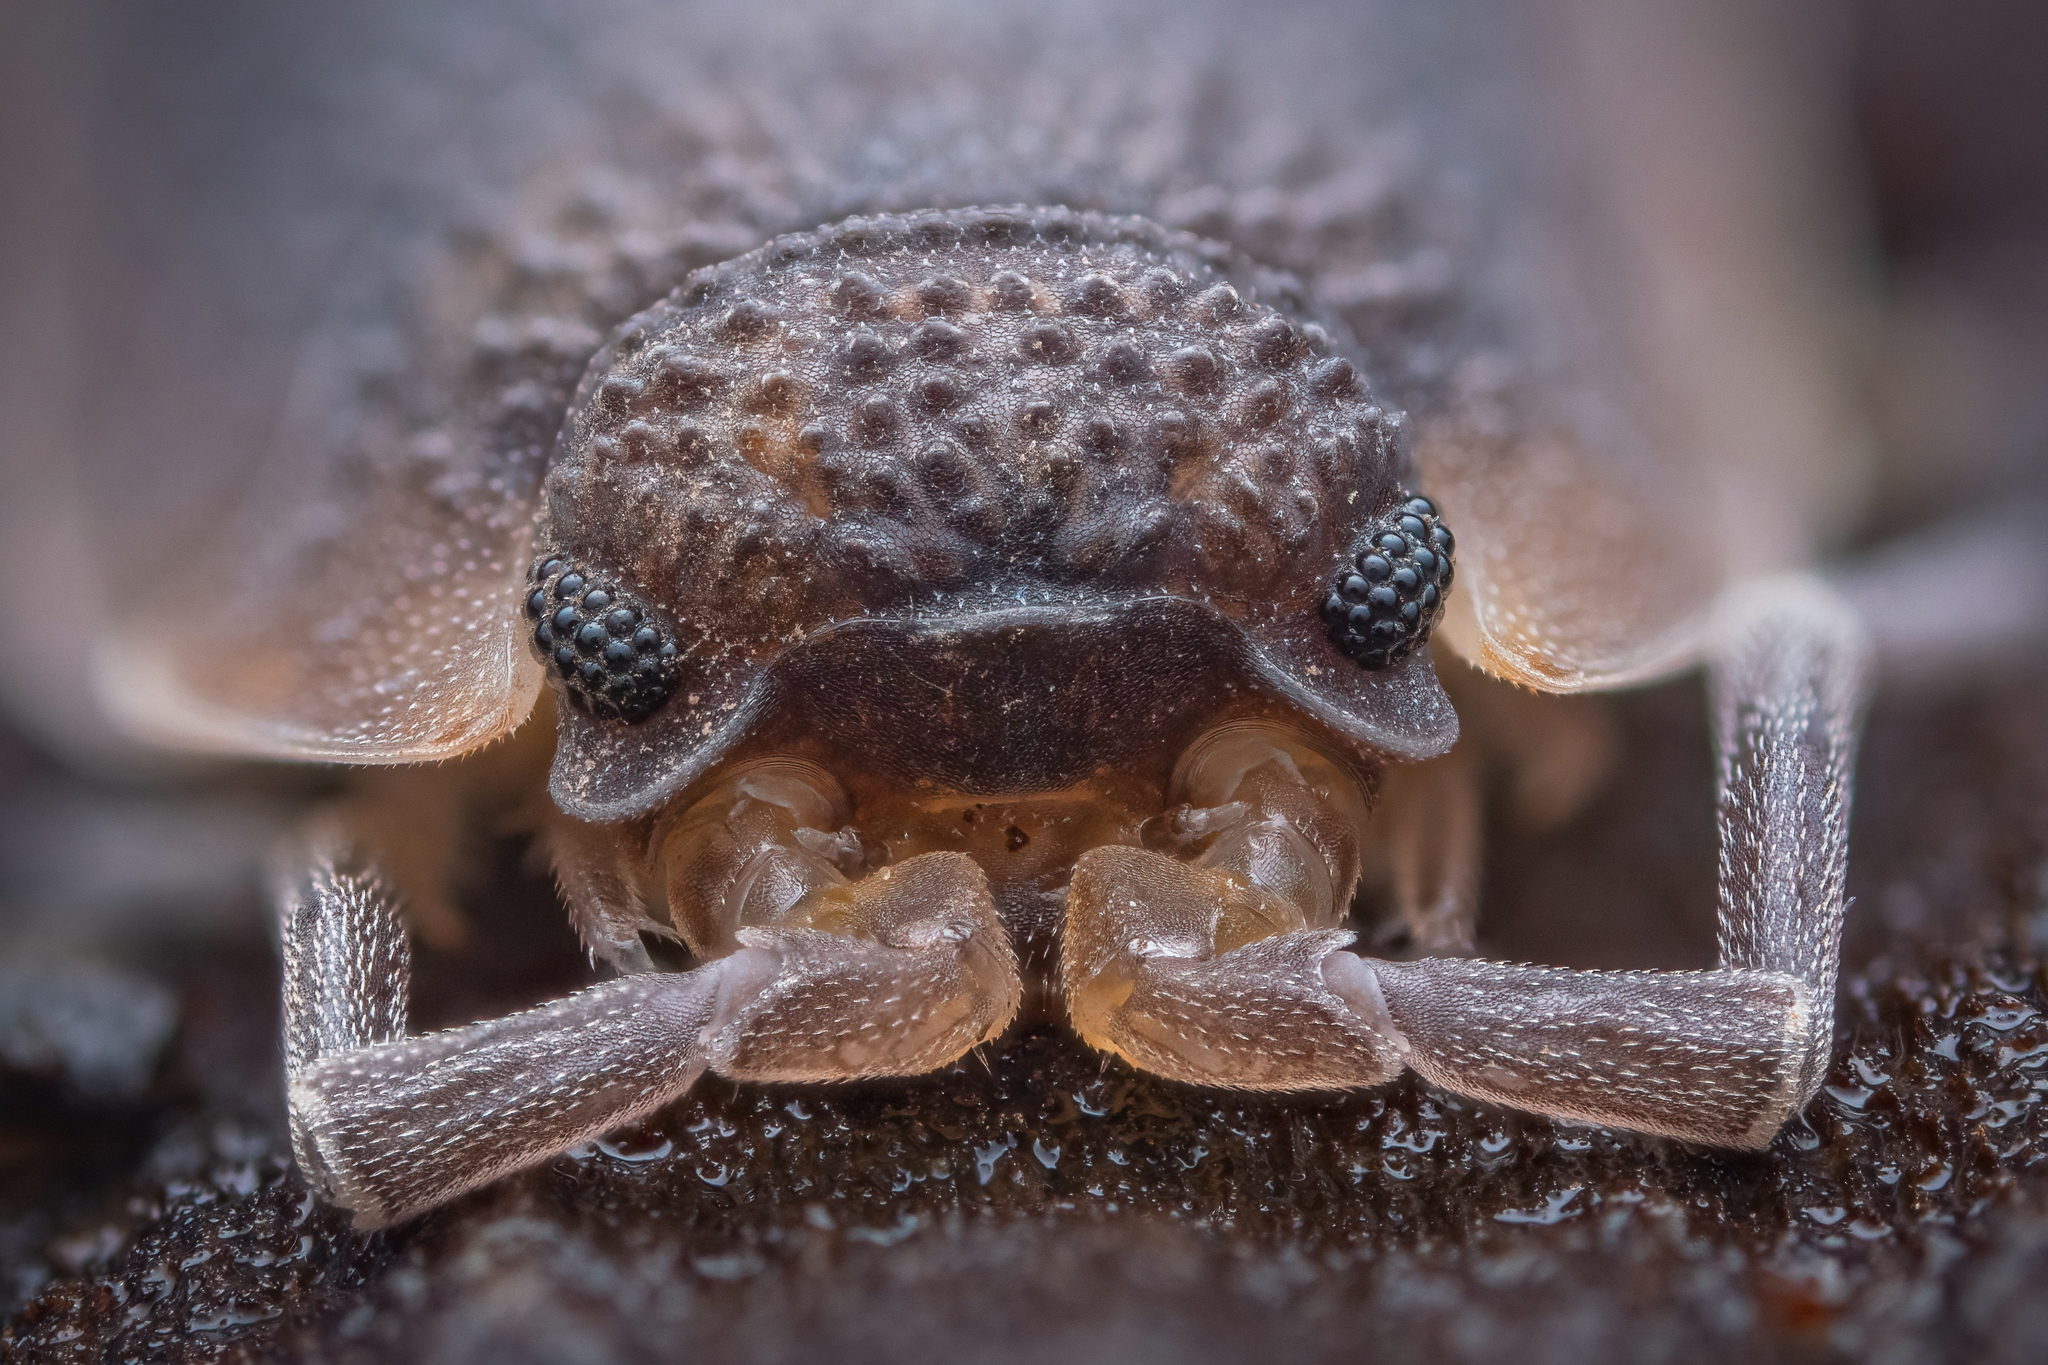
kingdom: Animalia
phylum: Arthropoda
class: Malacostraca
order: Isopoda
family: Porcellionidae
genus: Porcellio
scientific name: Porcellio scaber
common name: Common rough woodlouse
